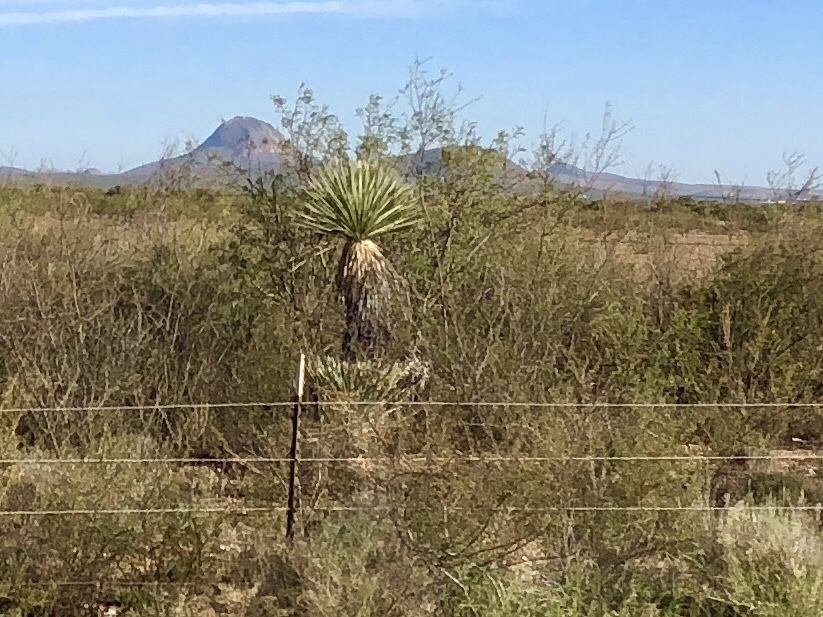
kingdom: Plantae
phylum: Tracheophyta
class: Liliopsida
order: Asparagales
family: Asparagaceae
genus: Yucca
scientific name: Yucca elata
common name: Palmella
